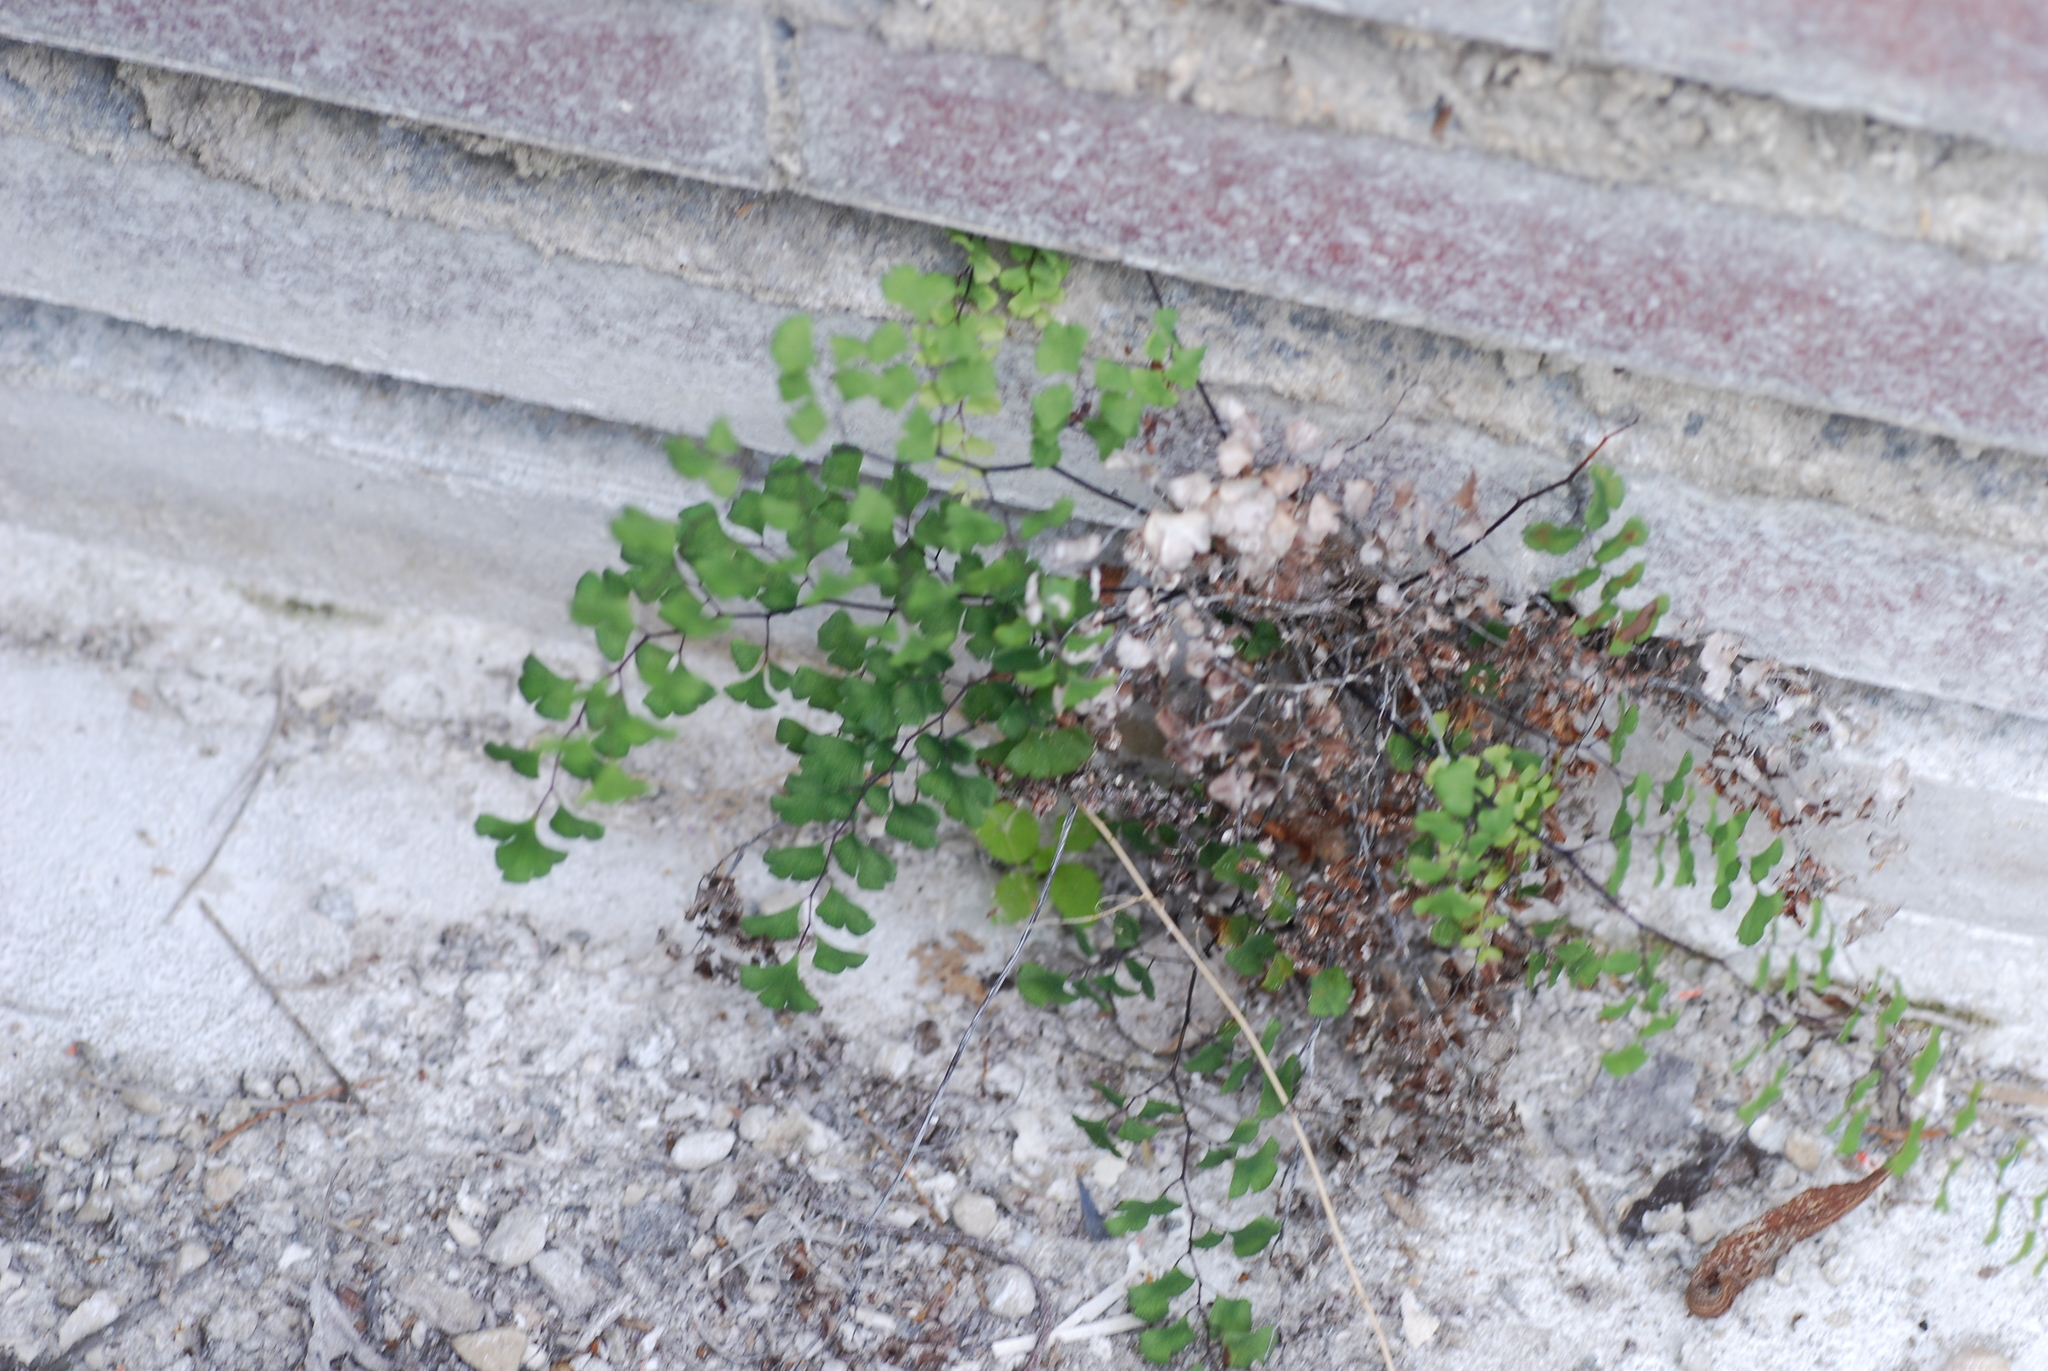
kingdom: Plantae
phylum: Tracheophyta
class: Polypodiopsida
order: Polypodiales
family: Pteridaceae
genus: Adiantum
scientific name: Adiantum capillus-veneris
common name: Maidenhair fern
